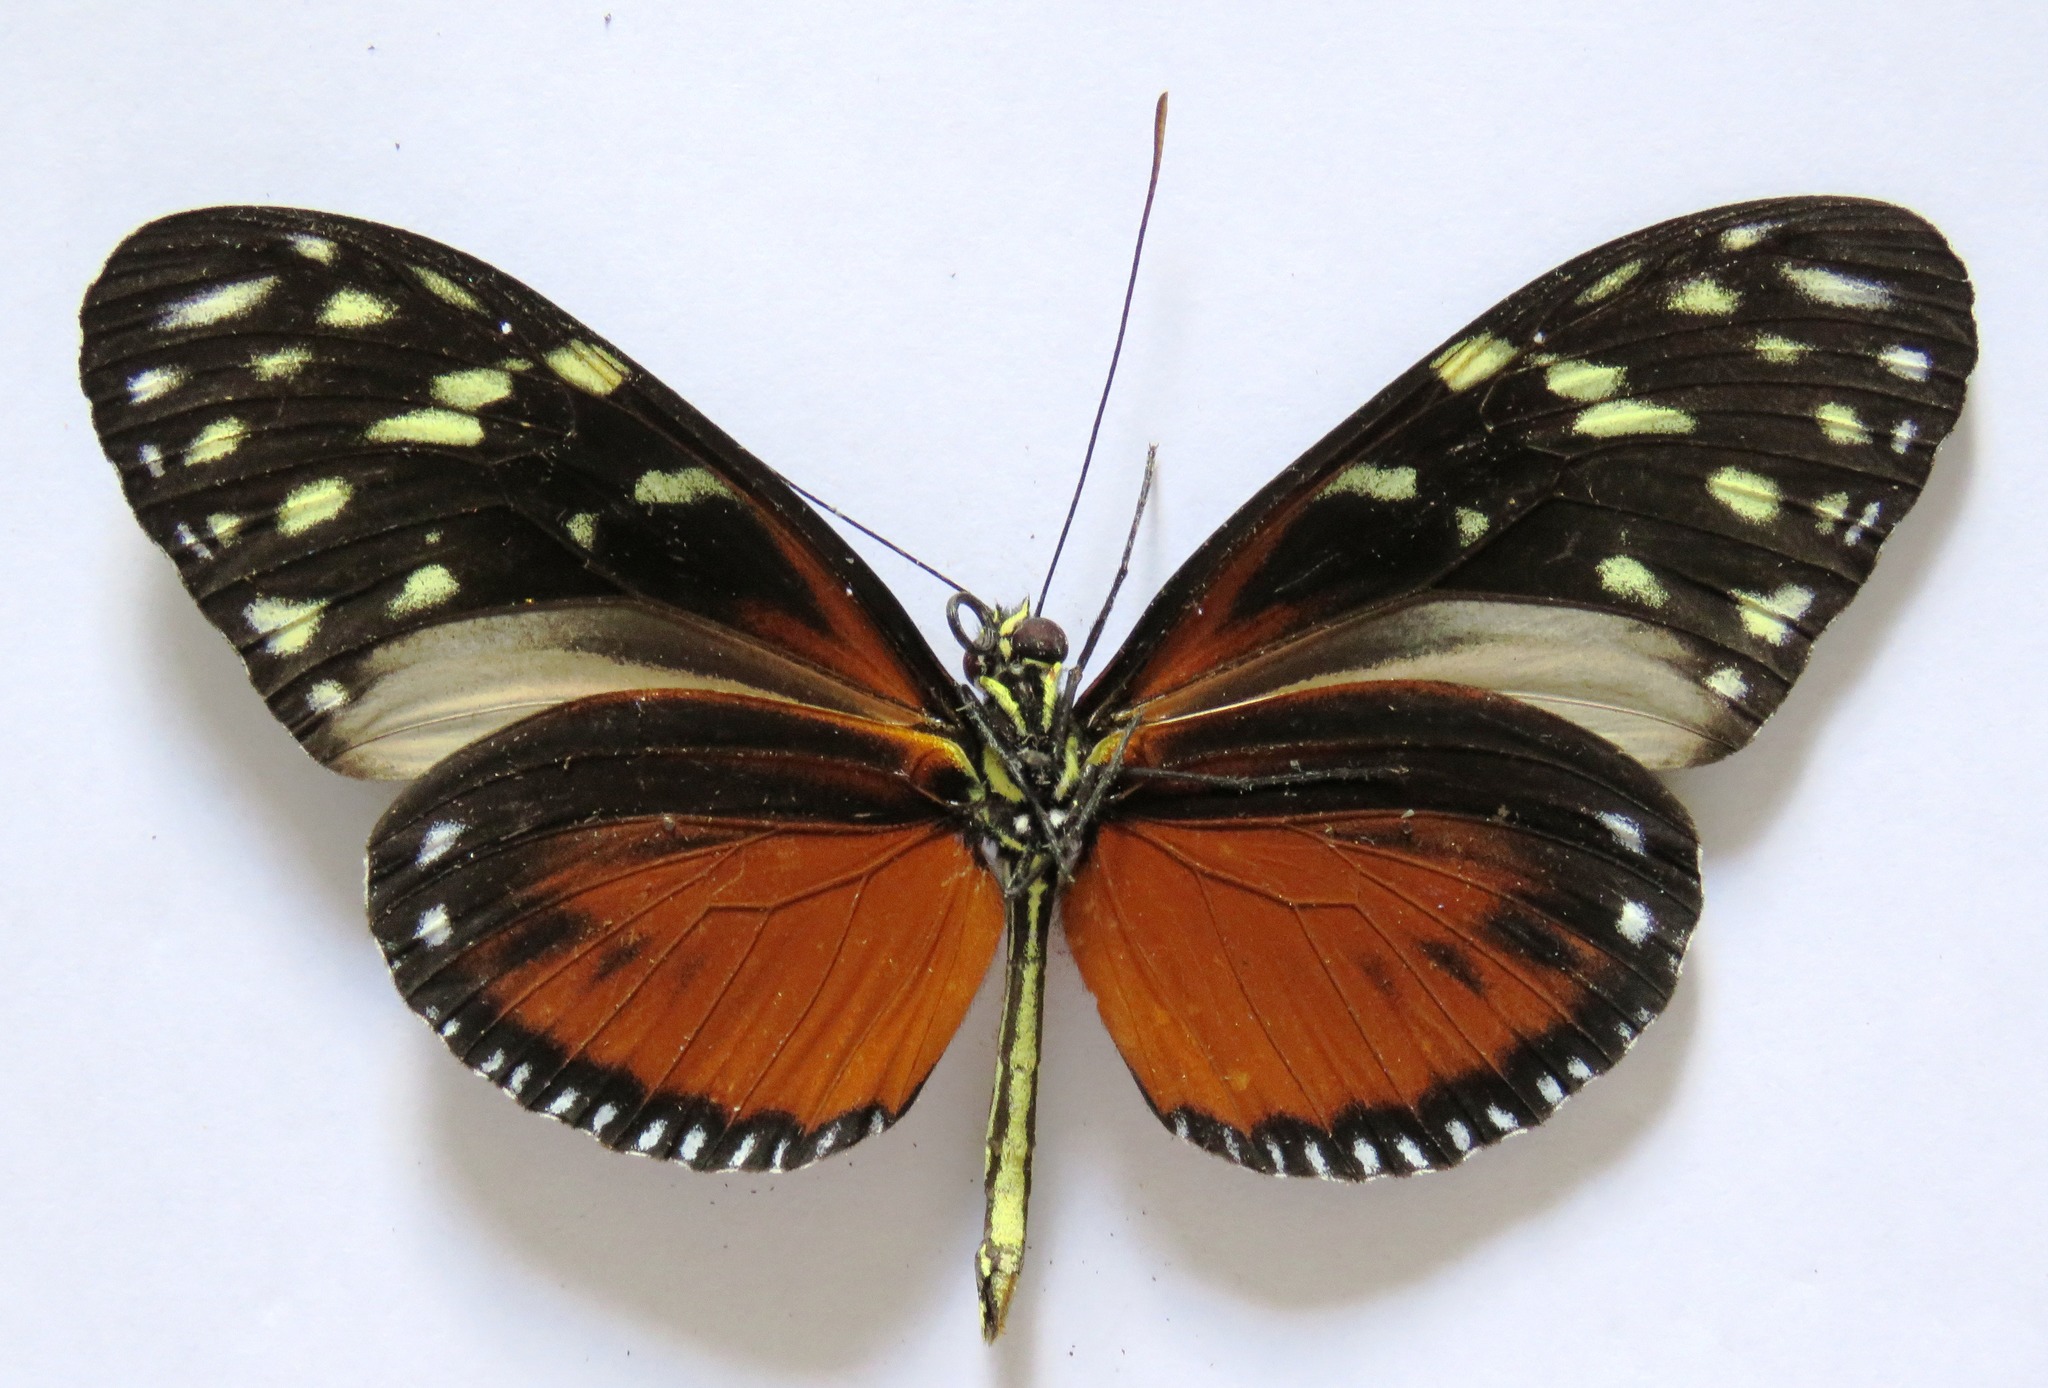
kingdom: Animalia
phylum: Arthropoda
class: Insecta
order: Lepidoptera
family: Nymphalidae
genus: Heliconius
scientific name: Heliconius hecale
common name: Tiger longwing
